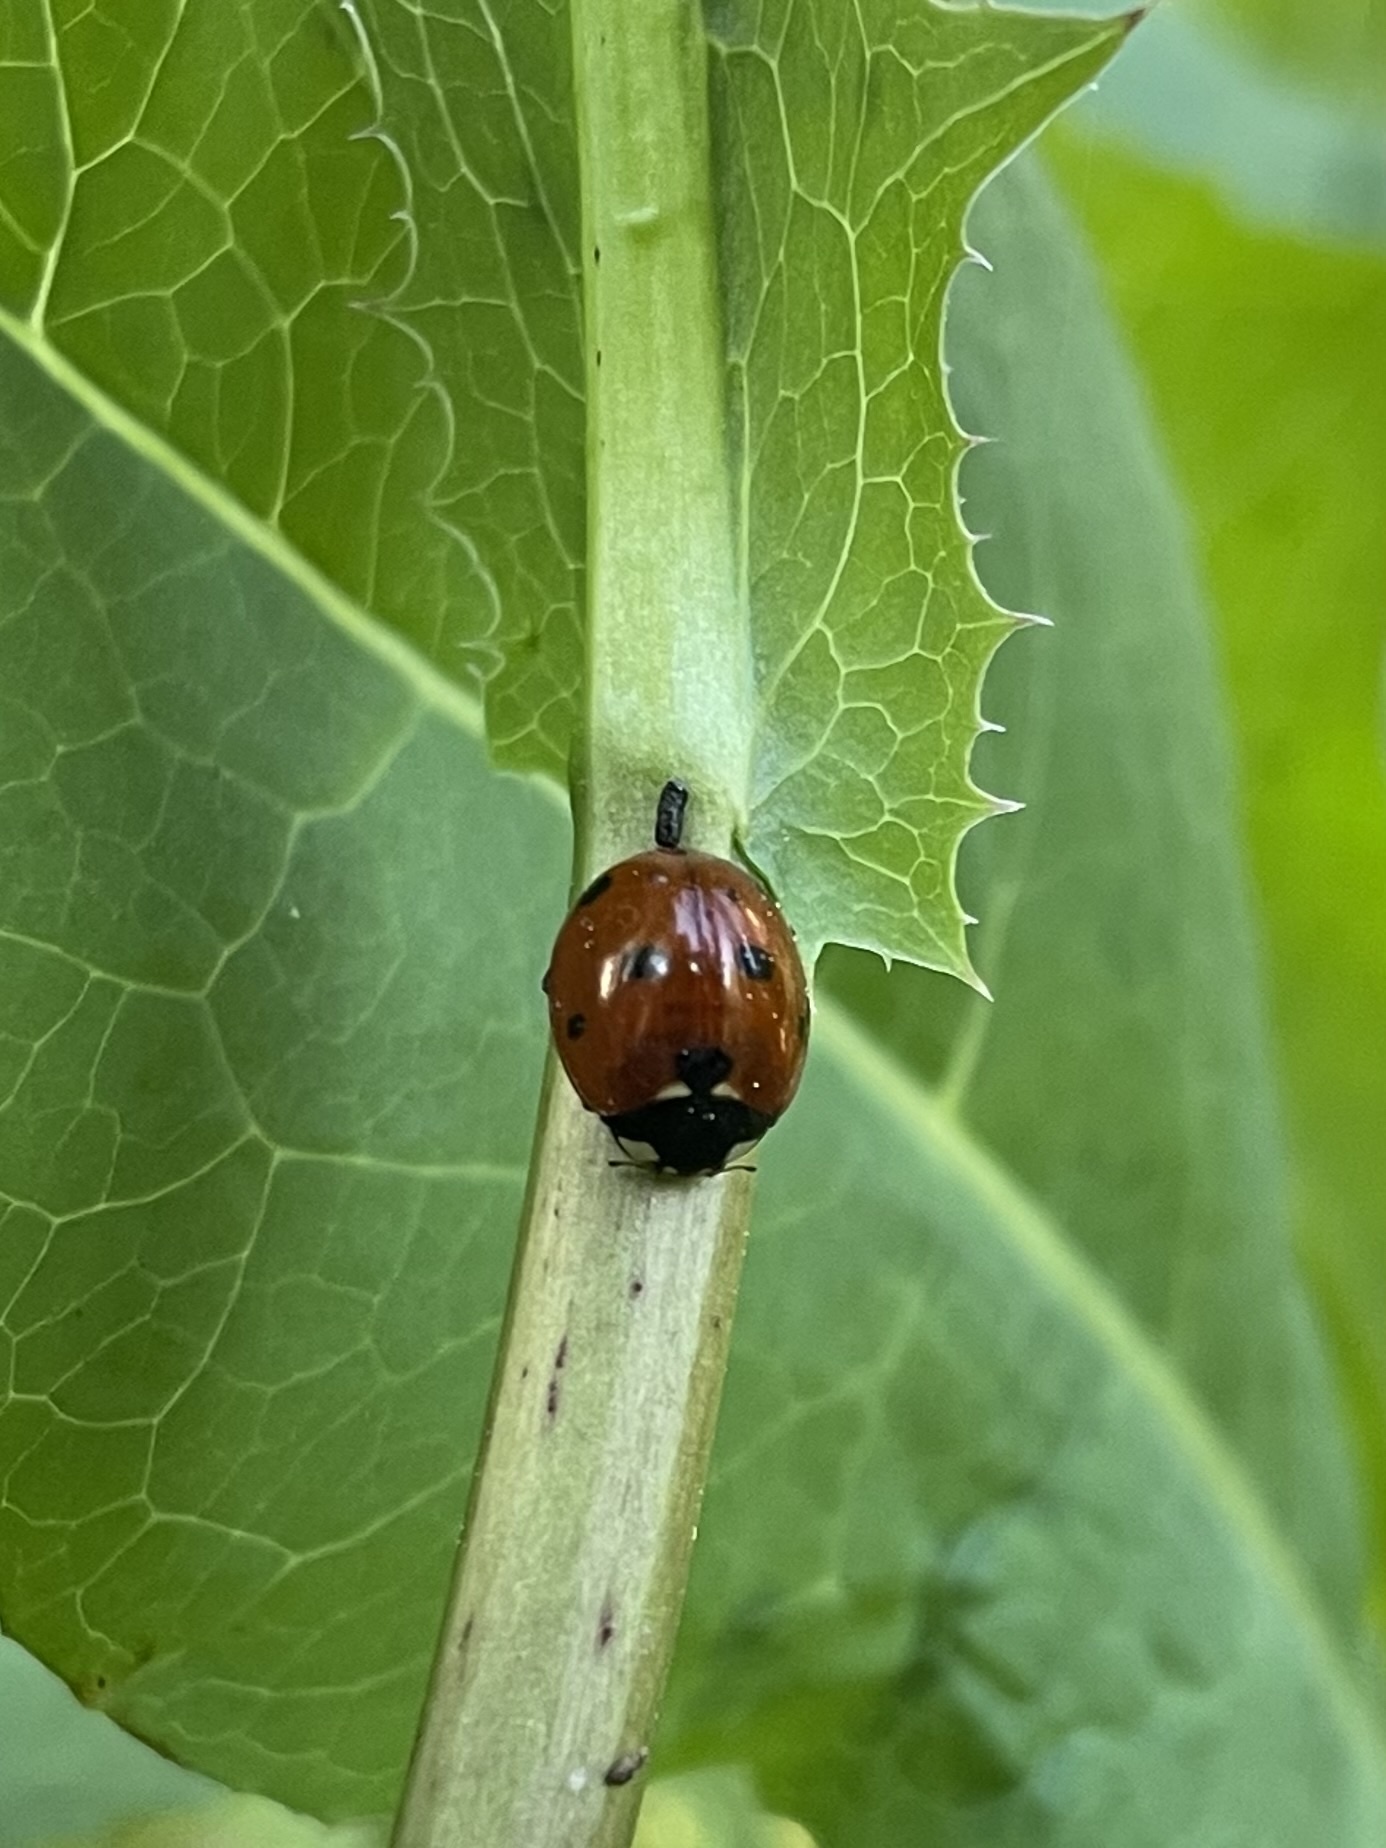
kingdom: Animalia
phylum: Arthropoda
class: Insecta
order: Coleoptera
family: Coccinellidae
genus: Coccinella
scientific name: Coccinella septempunctata
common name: Sevenspotted lady beetle
